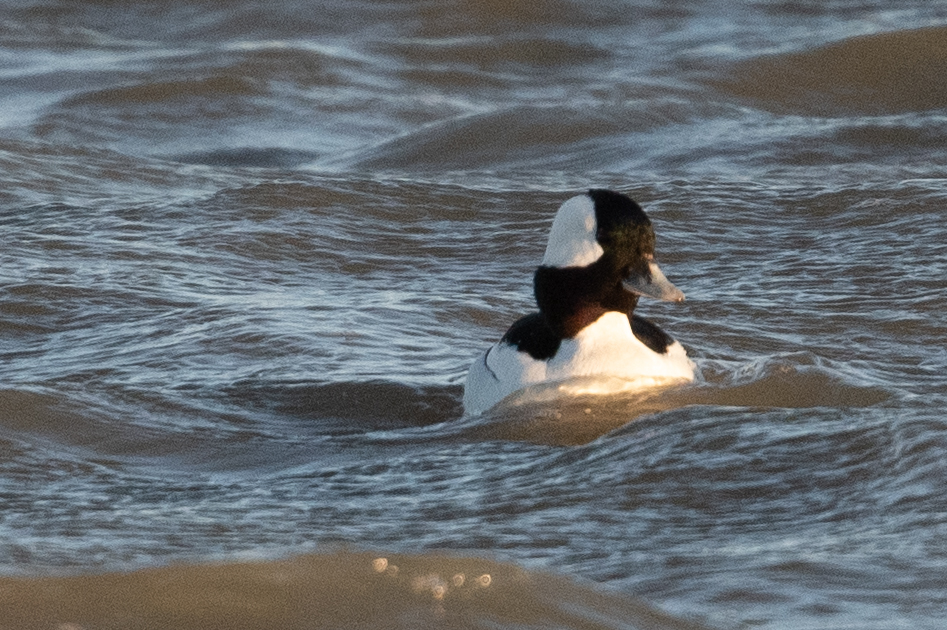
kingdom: Animalia
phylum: Chordata
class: Aves
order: Anseriformes
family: Anatidae
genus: Bucephala
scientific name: Bucephala albeola
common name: Bufflehead
